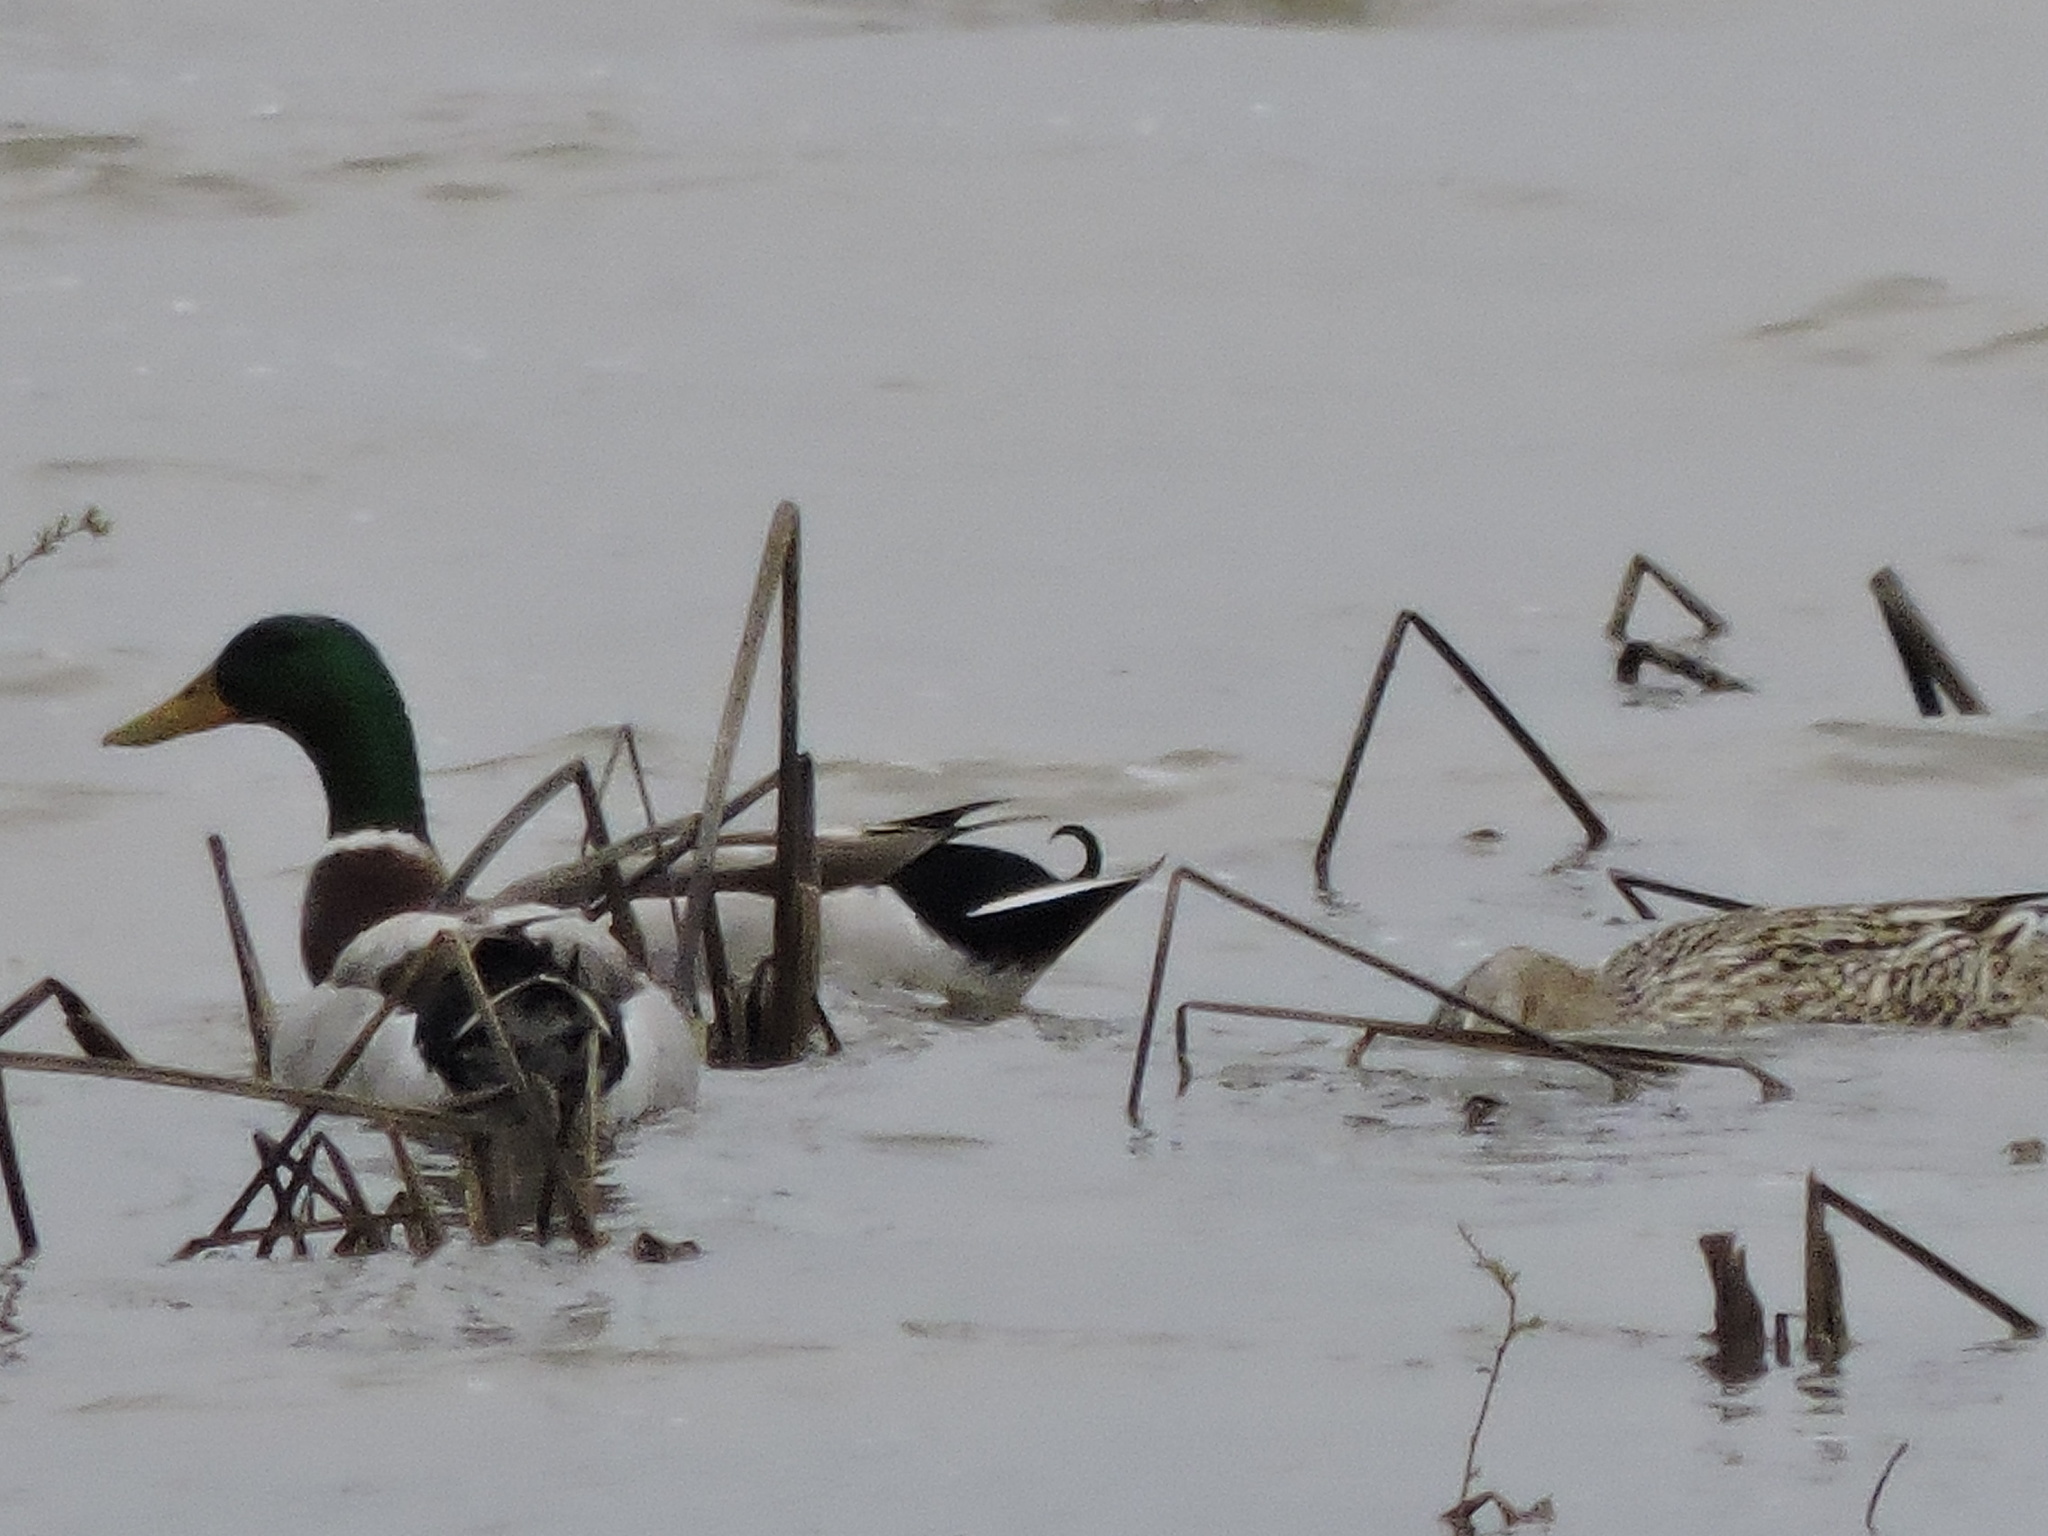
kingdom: Animalia
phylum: Chordata
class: Aves
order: Anseriformes
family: Anatidae
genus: Anas
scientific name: Anas platyrhynchos
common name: Mallard
